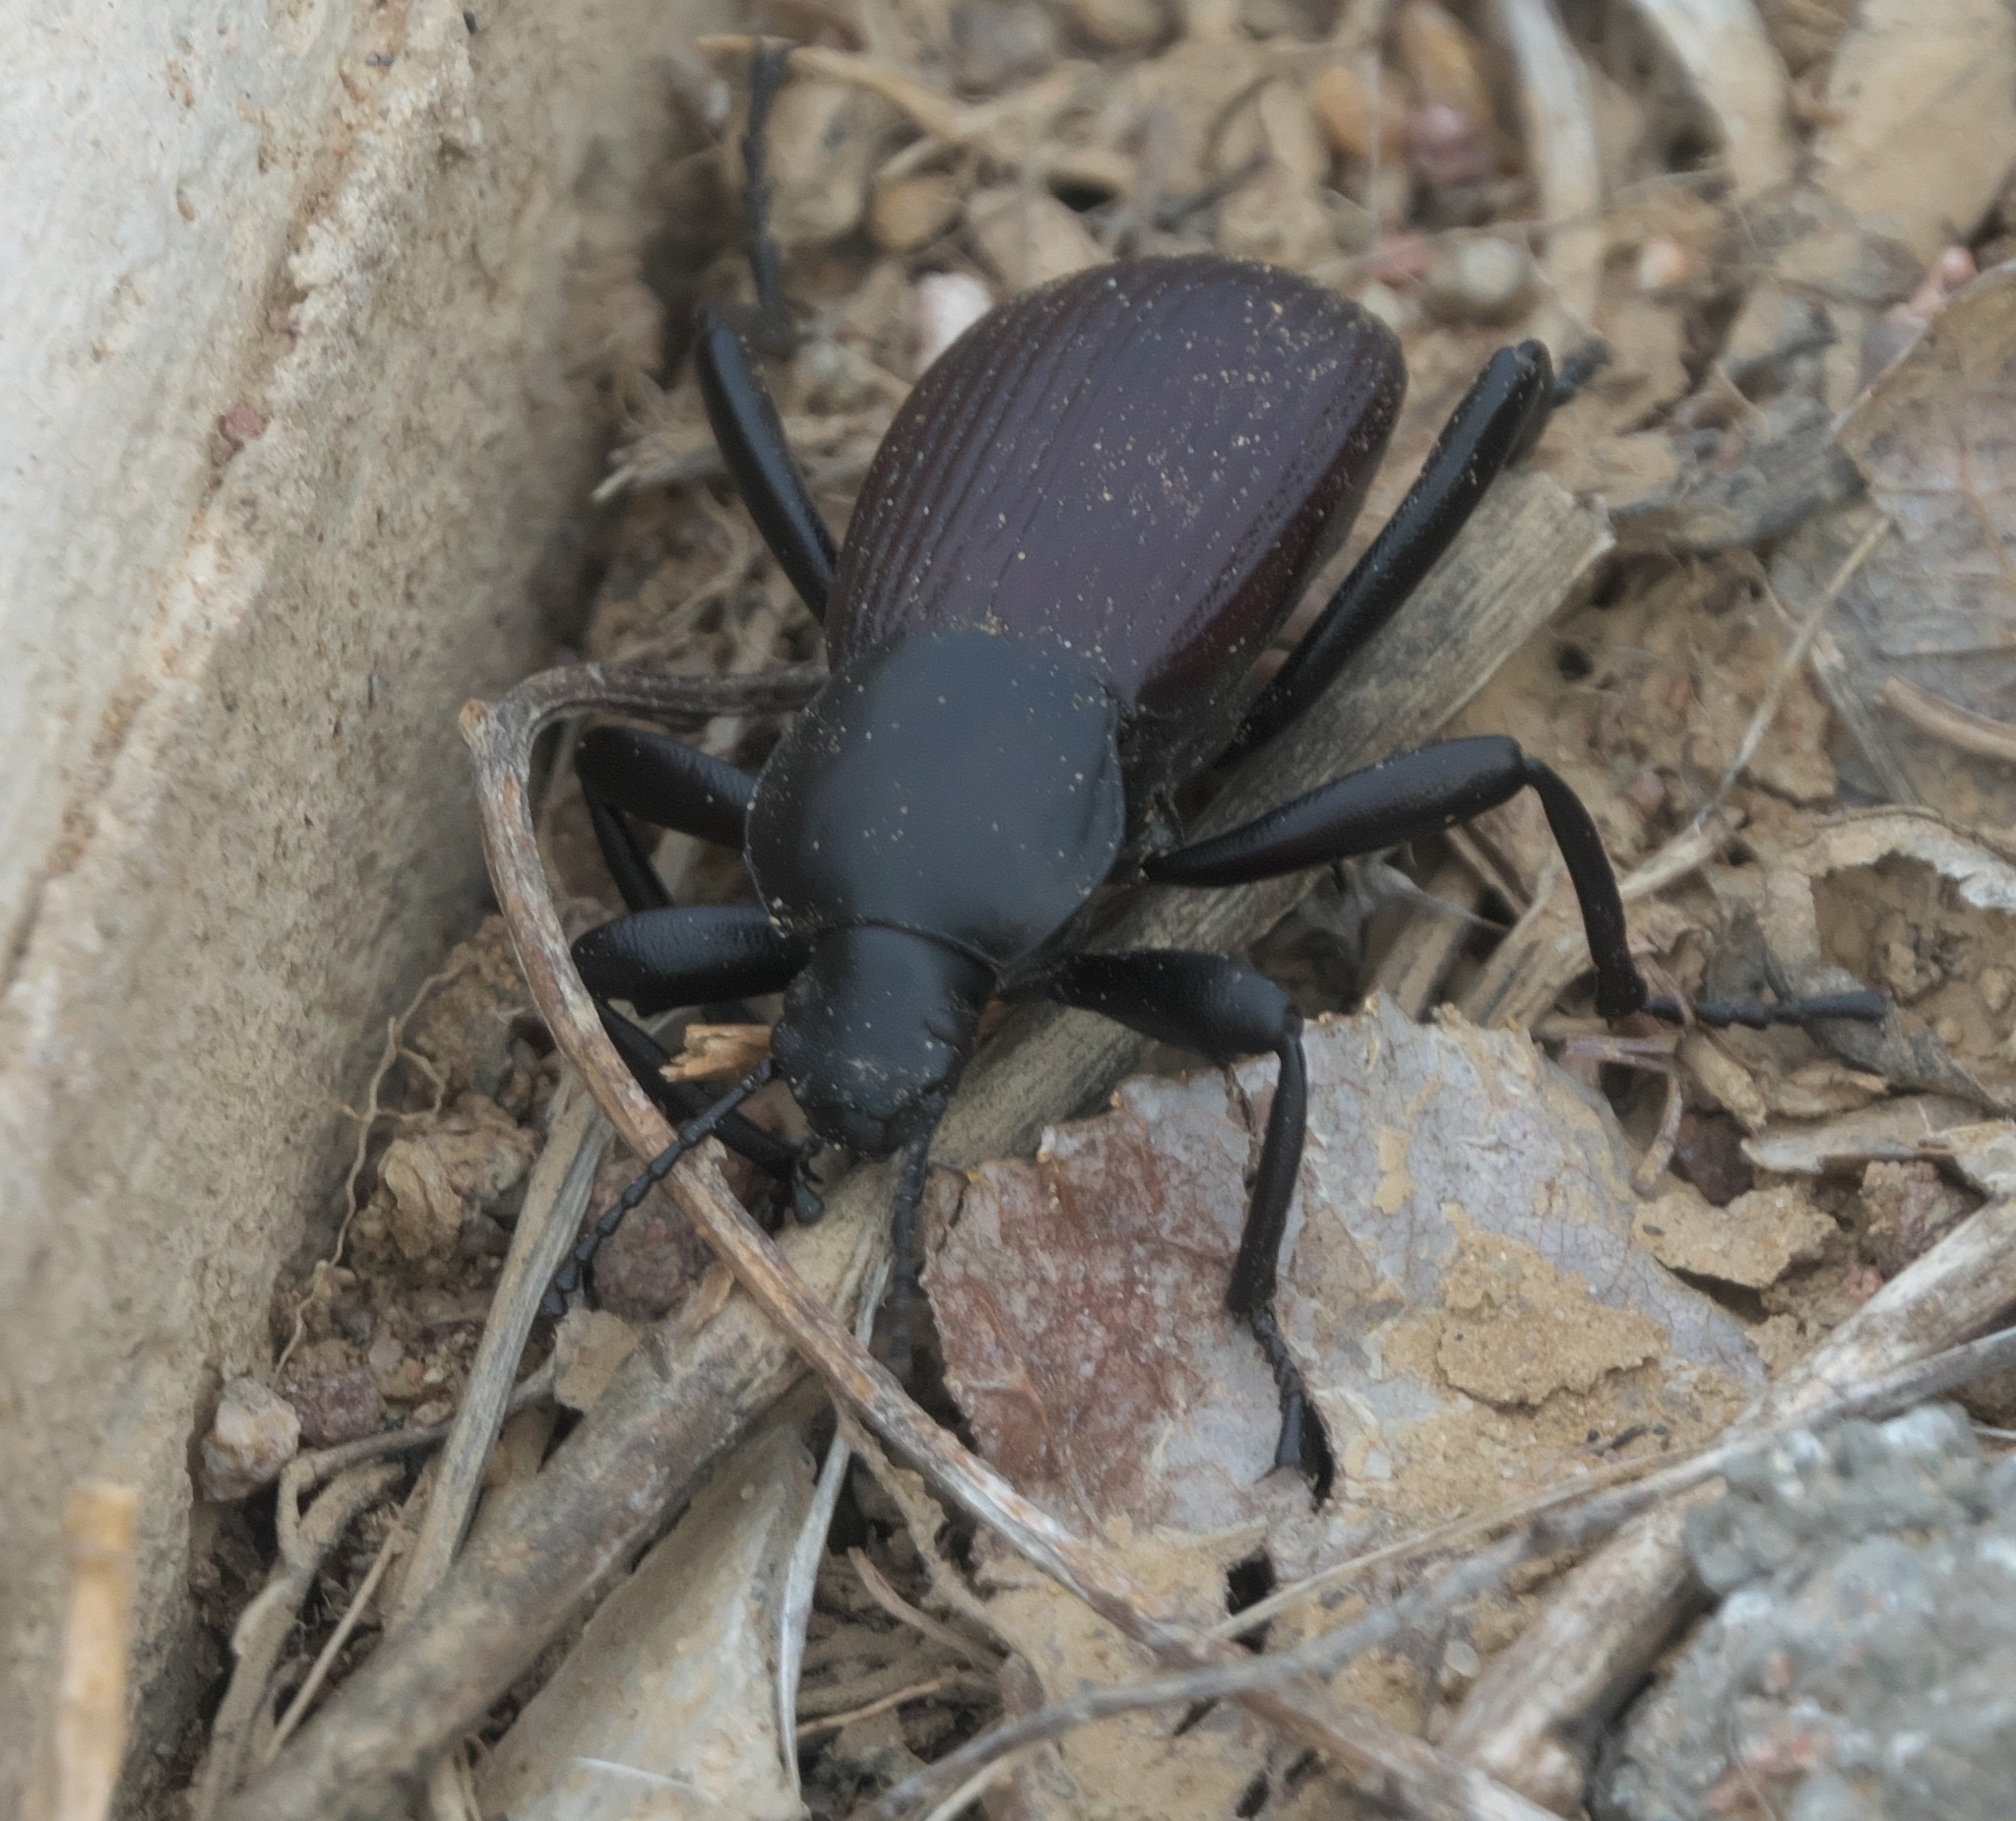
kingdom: Animalia
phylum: Arthropoda
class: Insecta
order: Coleoptera
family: Tenebrionidae
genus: Eleodes
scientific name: Eleodes obscura
